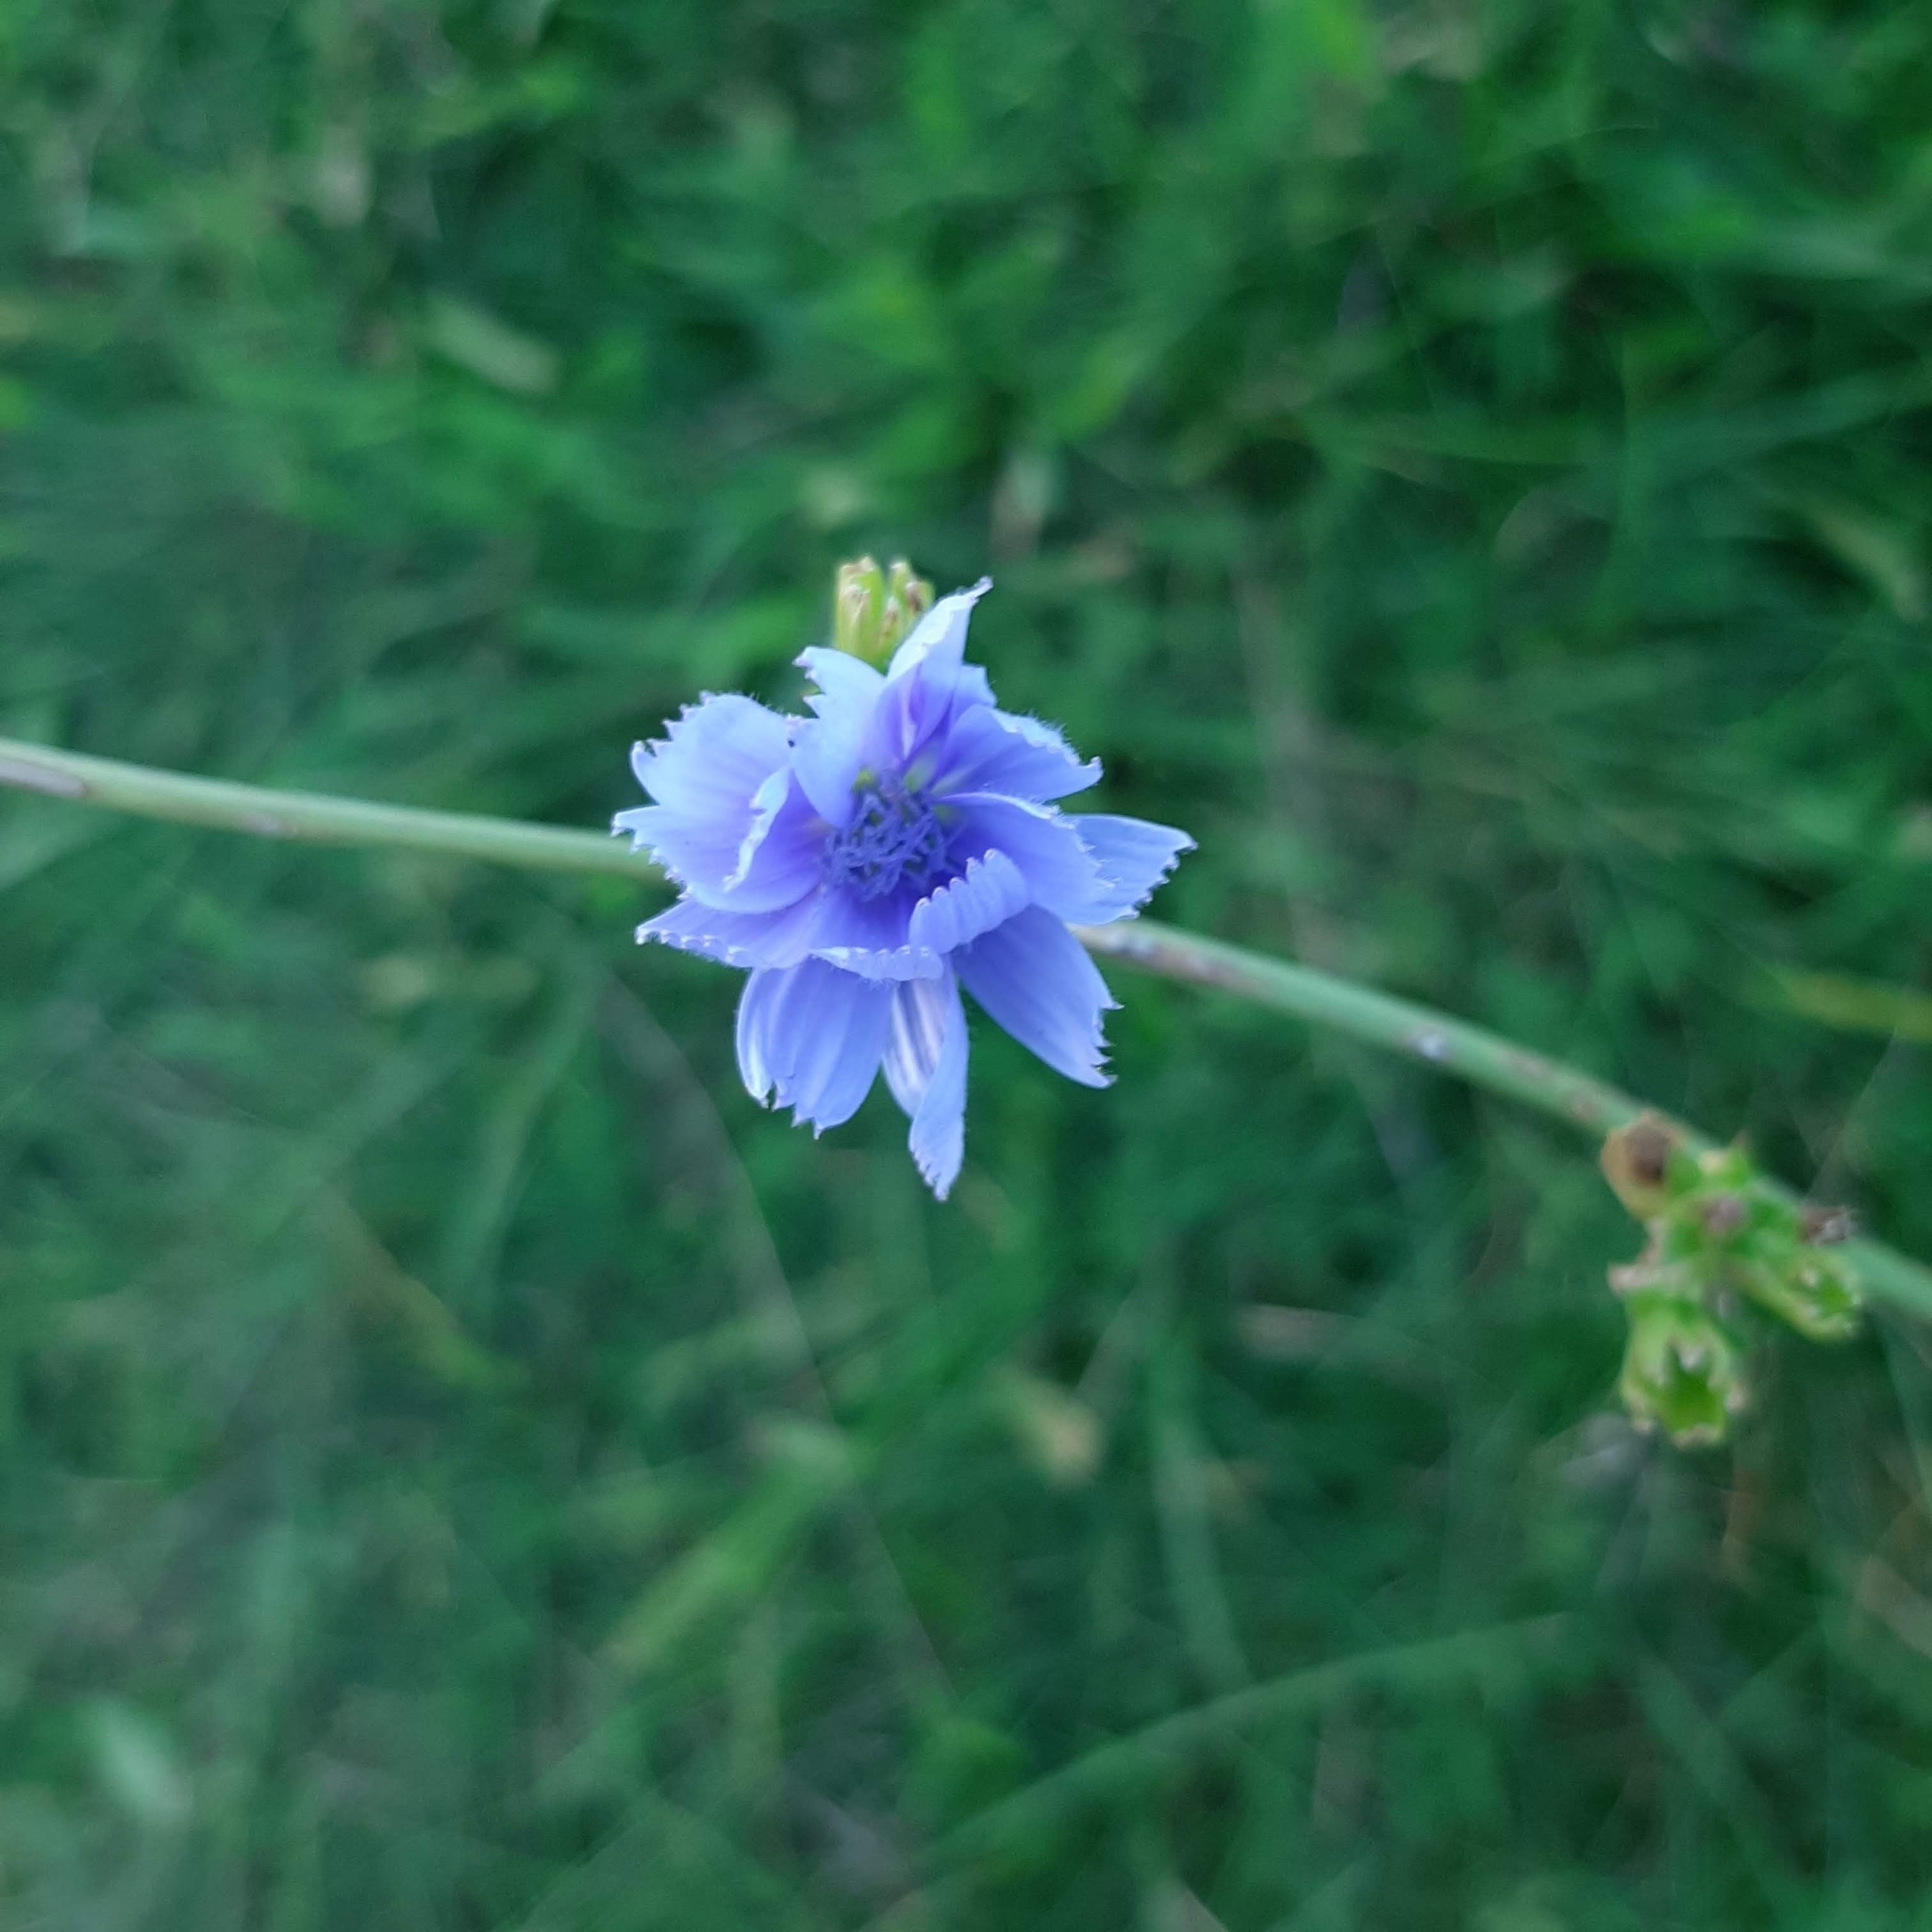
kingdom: Plantae
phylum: Tracheophyta
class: Magnoliopsida
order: Asterales
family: Asteraceae
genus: Cichorium
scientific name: Cichorium intybus
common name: Chicory
